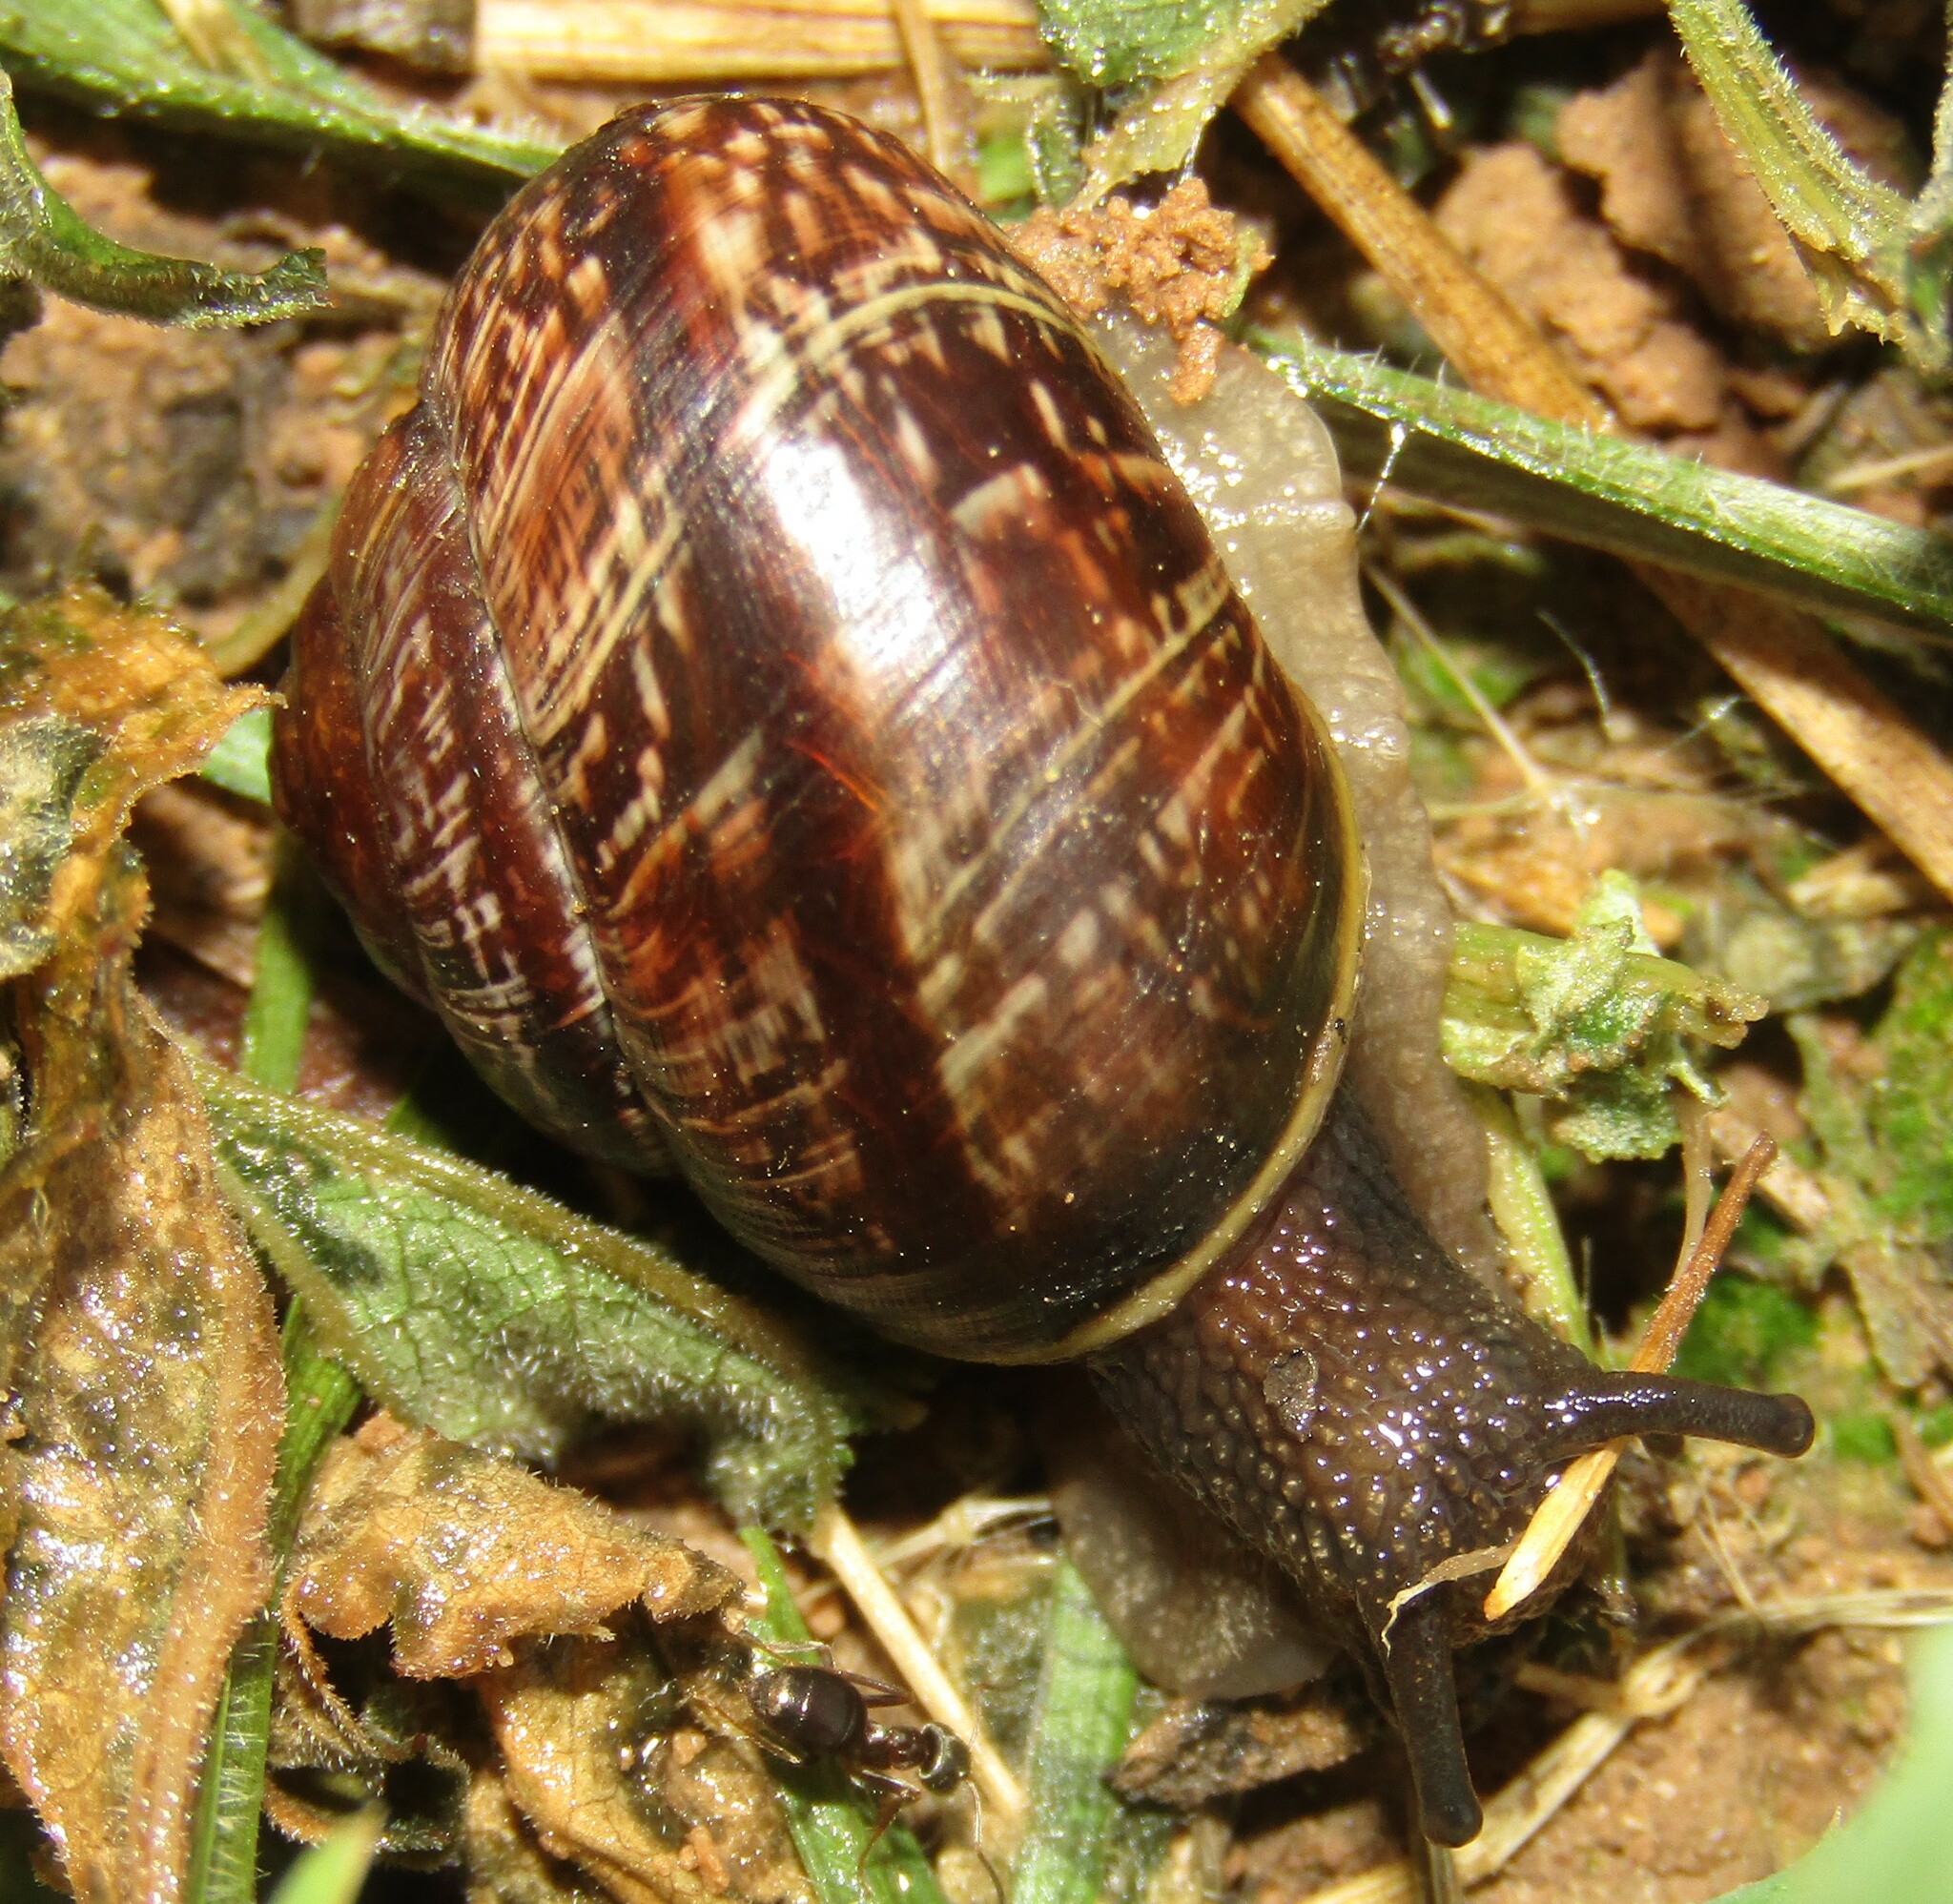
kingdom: Animalia
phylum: Mollusca
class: Gastropoda
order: Stylommatophora
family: Helicidae
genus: Arianta
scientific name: Arianta arbustorum
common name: Copse snail
